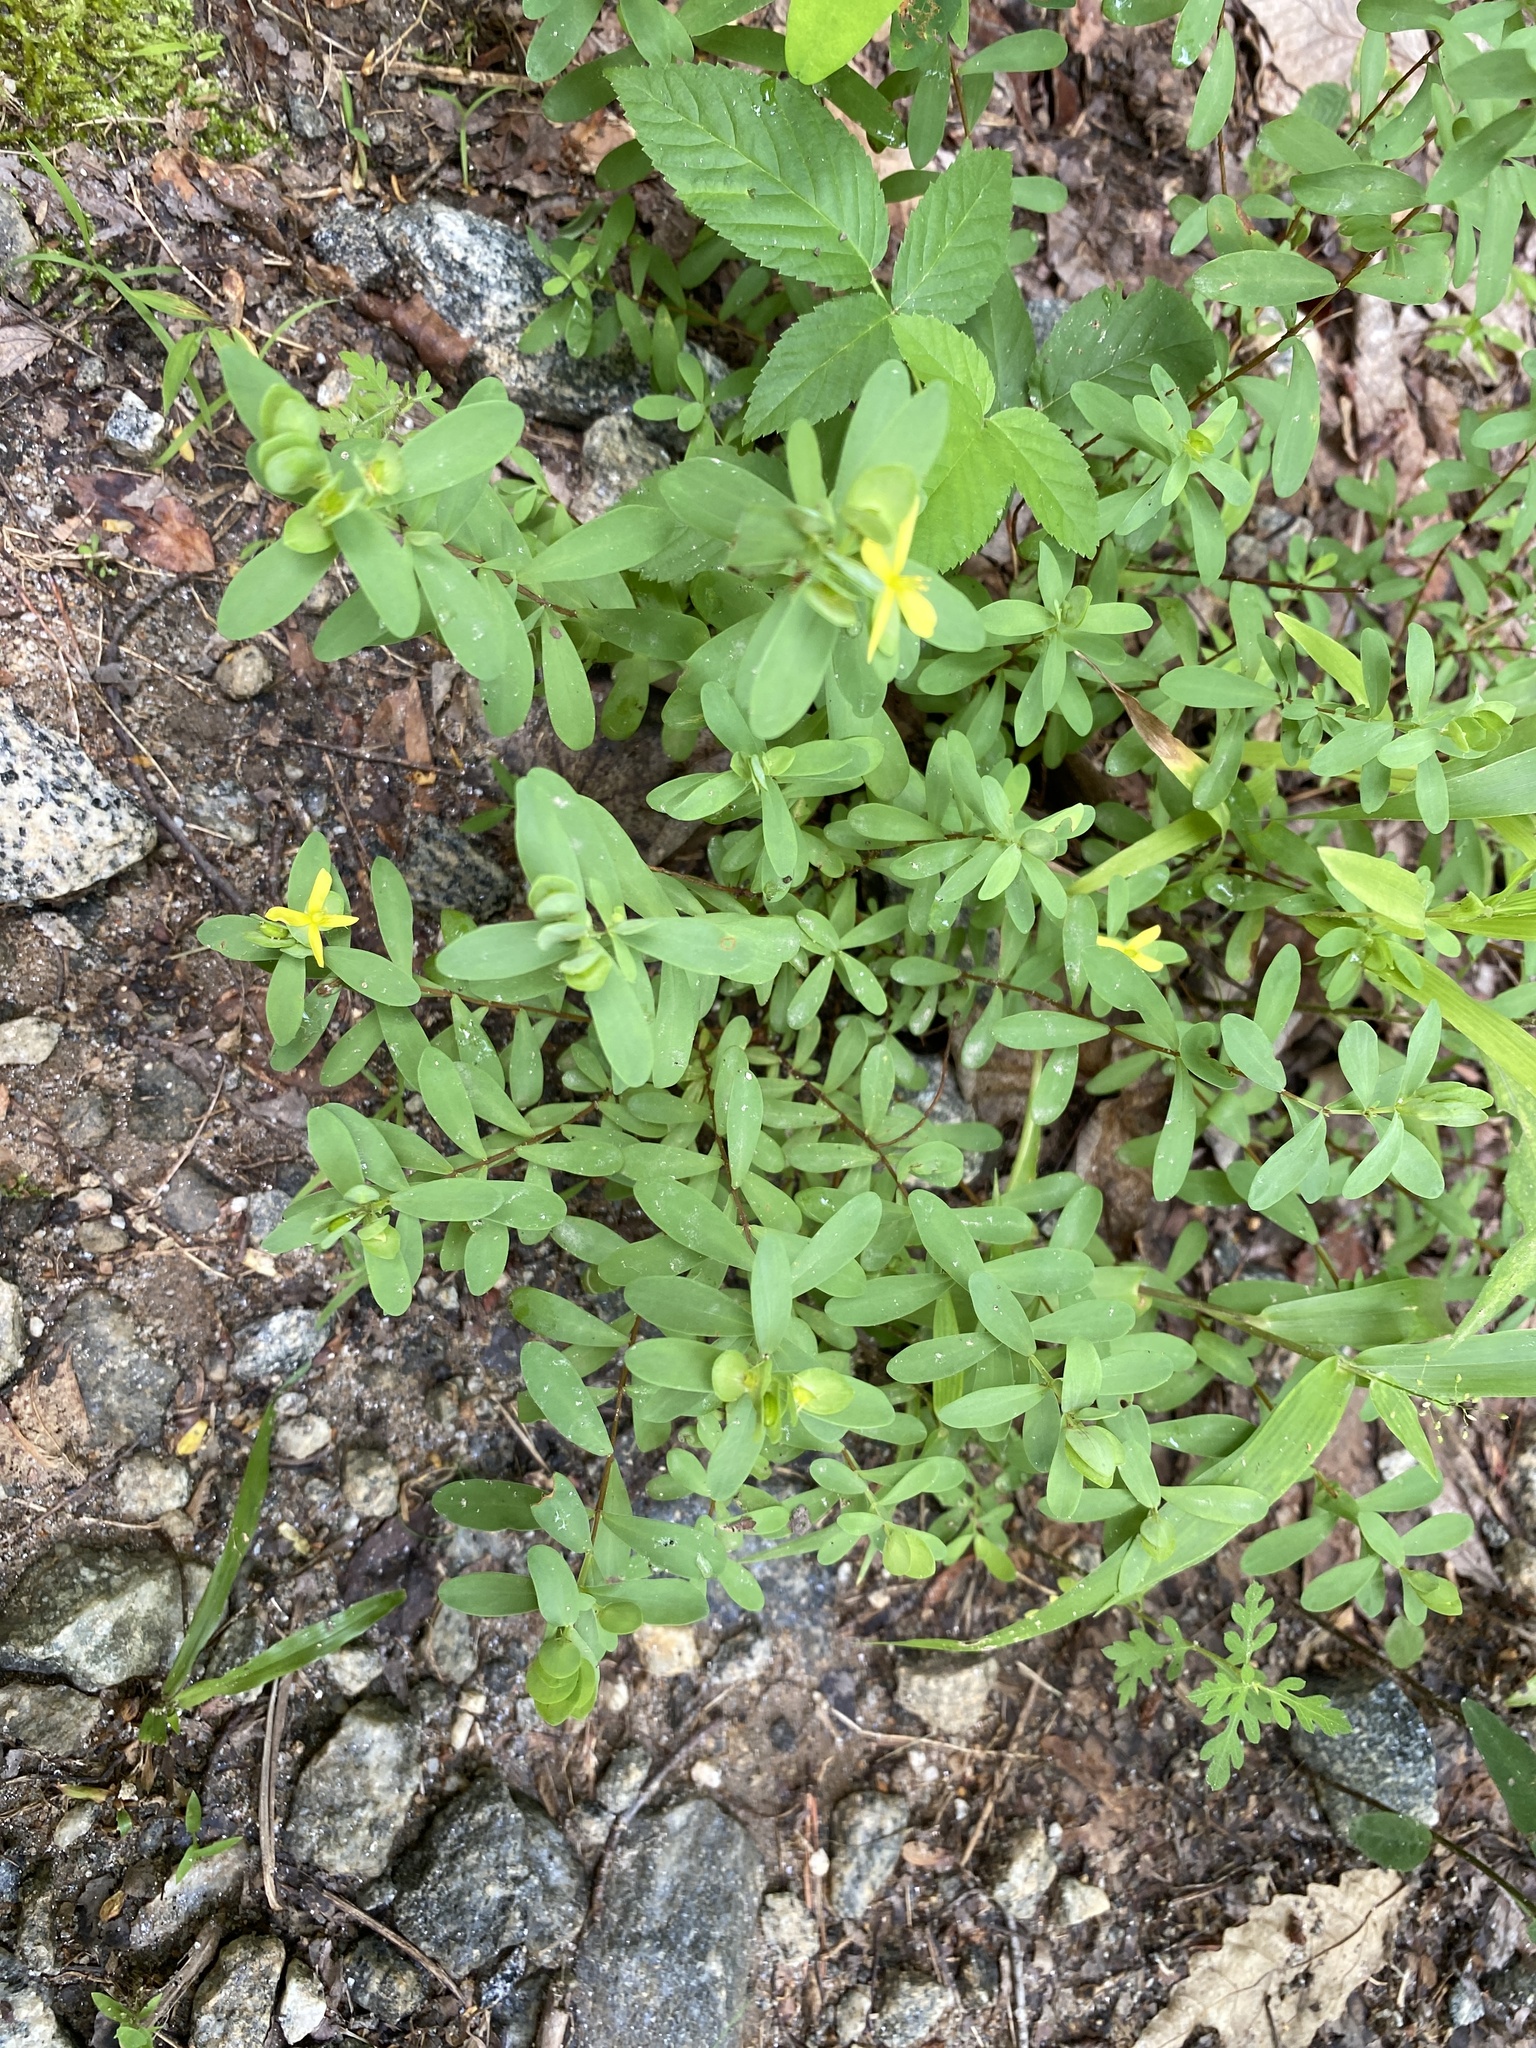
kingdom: Plantae
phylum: Tracheophyta
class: Magnoliopsida
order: Malpighiales
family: Hypericaceae
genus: Hypericum
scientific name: Hypericum hypericoides
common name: St. andrew's cross
